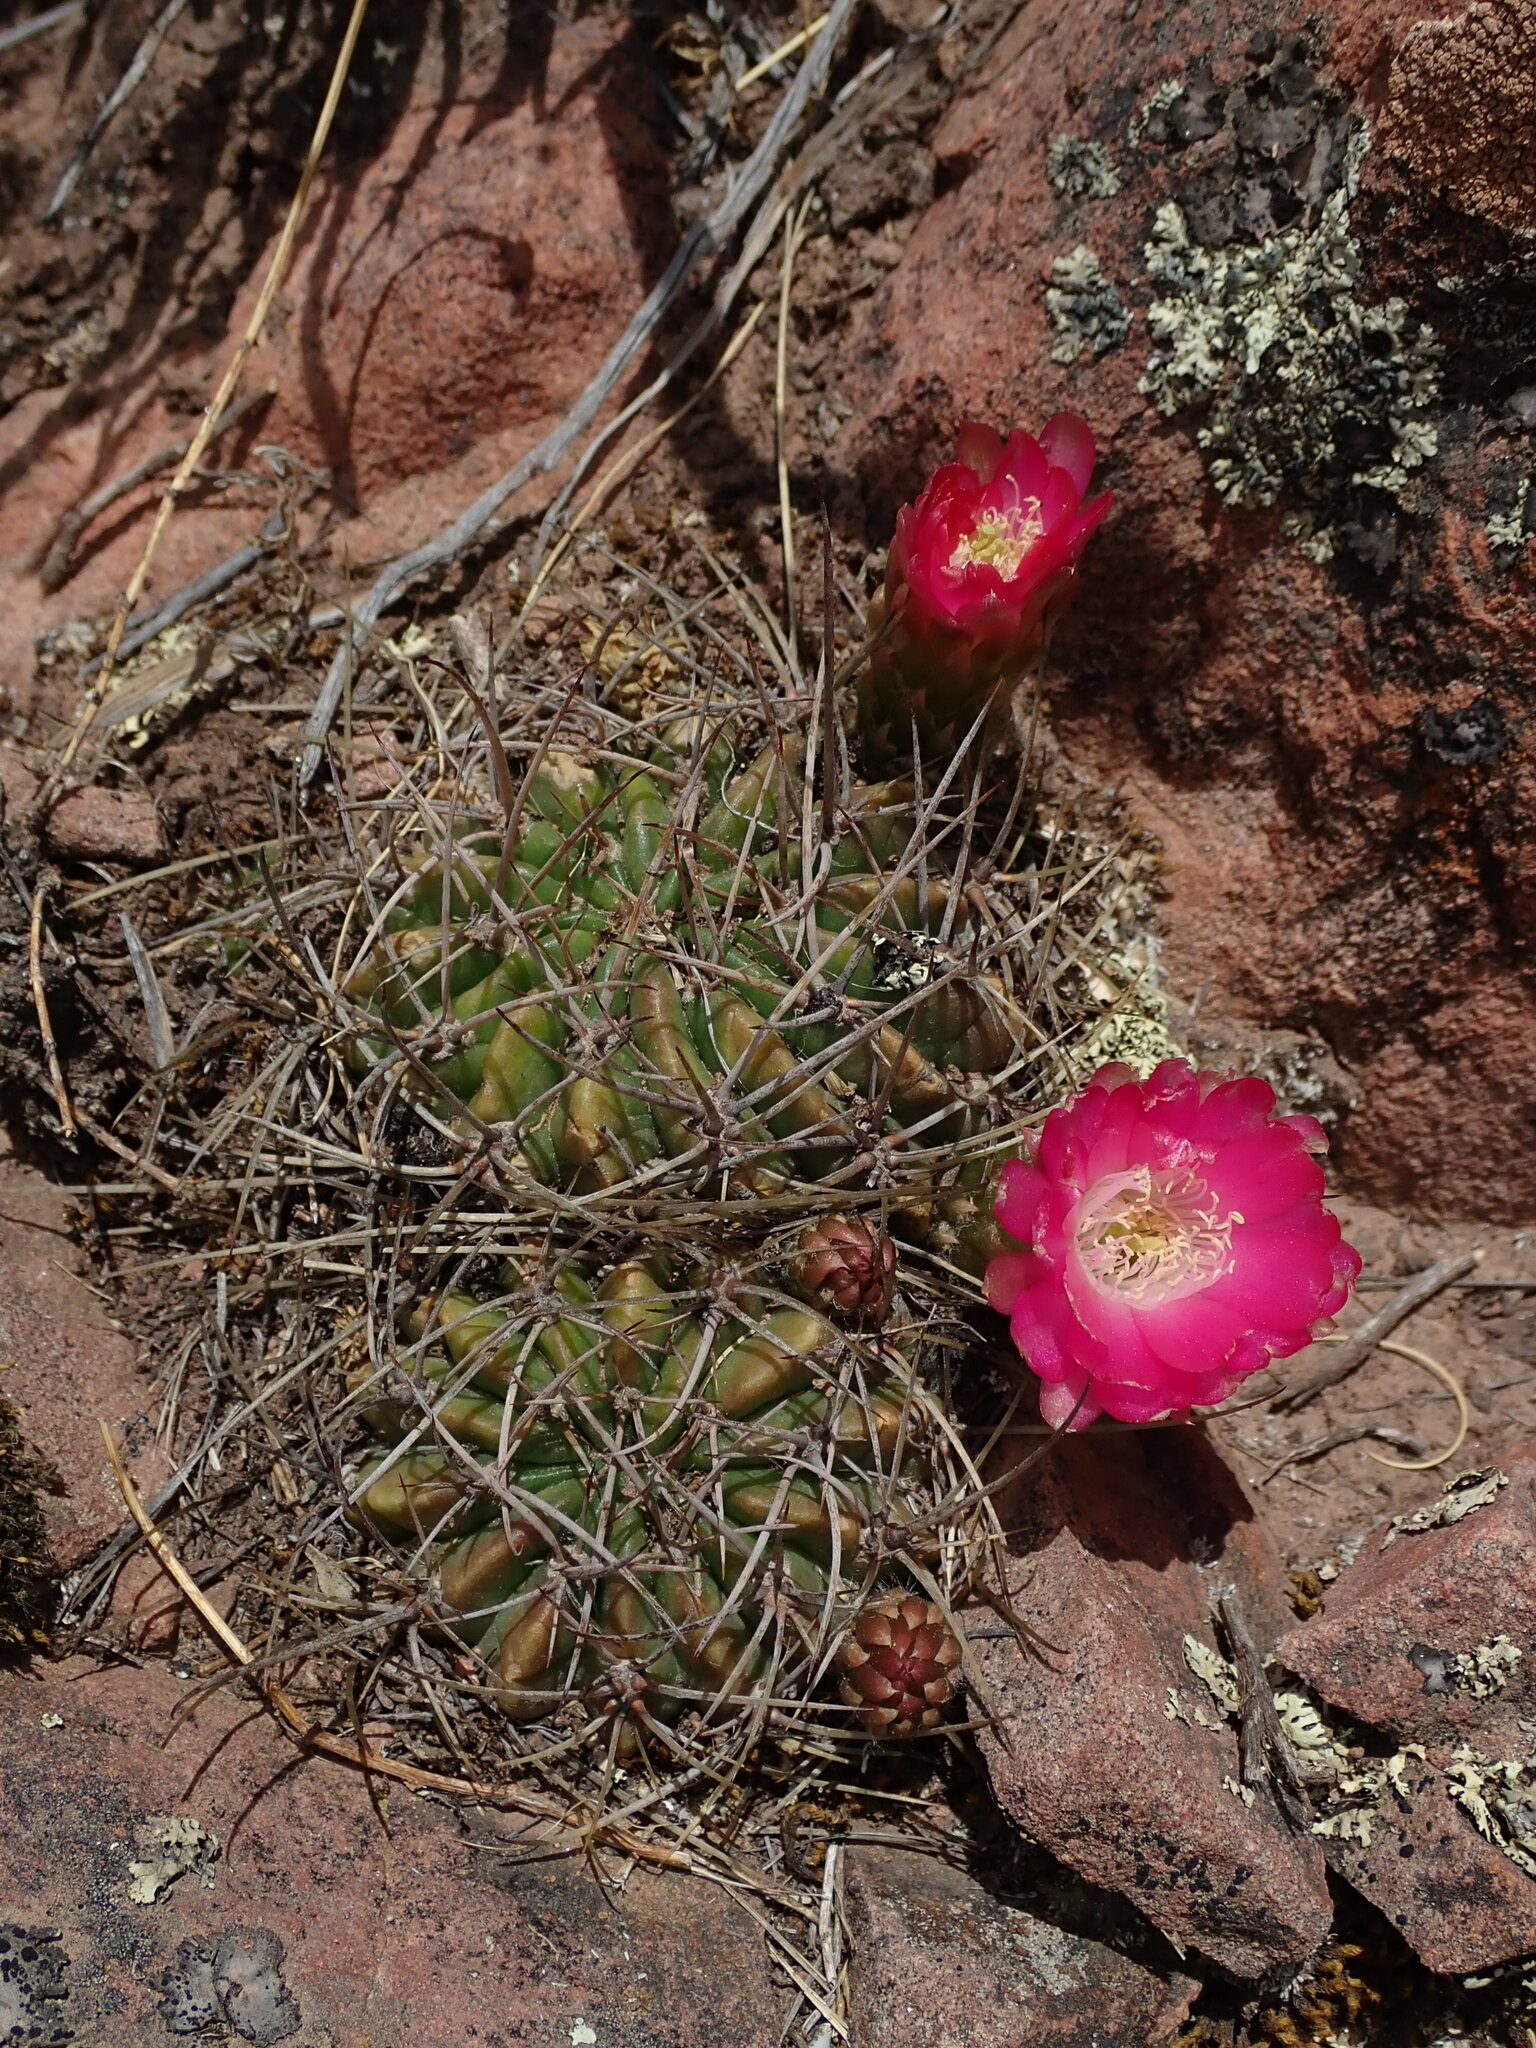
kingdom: Plantae
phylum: Tracheophyta
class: Magnoliopsida
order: Caryophyllales
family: Cactaceae
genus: Lobivia
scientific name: Lobivia pentlandii
